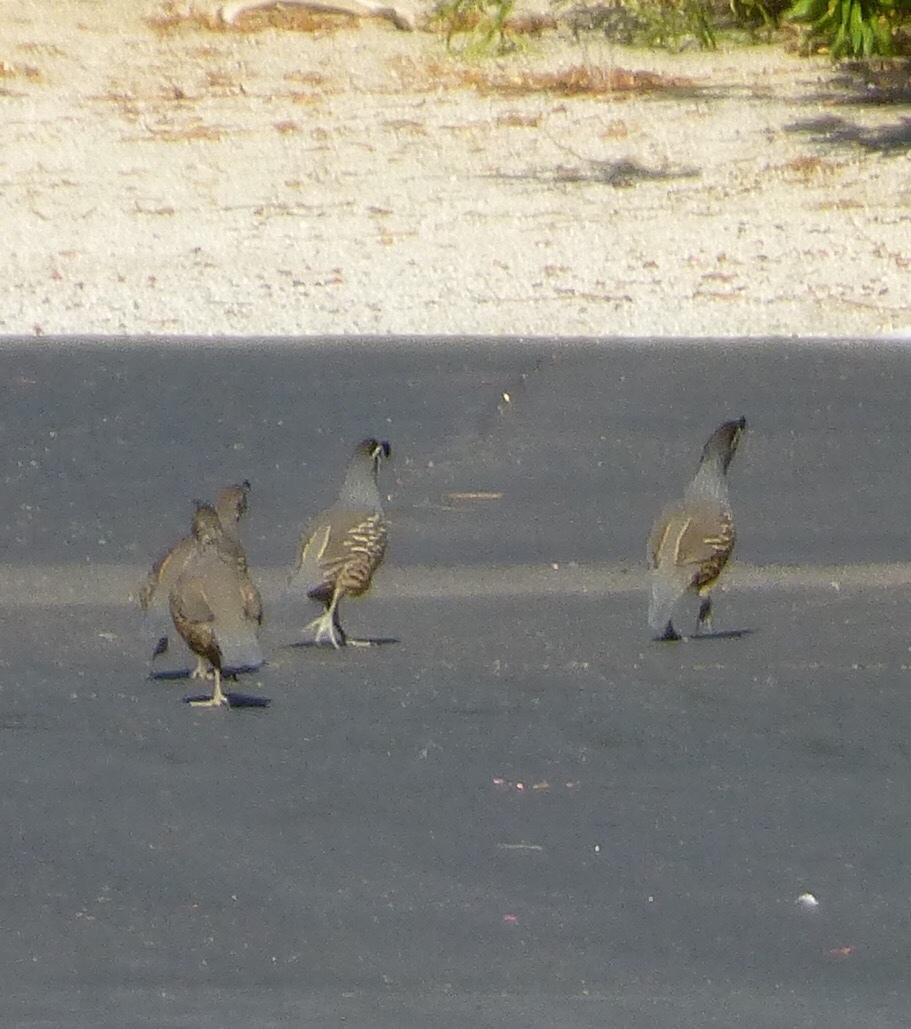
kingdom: Animalia
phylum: Chordata
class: Aves
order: Galliformes
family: Odontophoridae
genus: Callipepla
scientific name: Callipepla californica
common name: California quail
